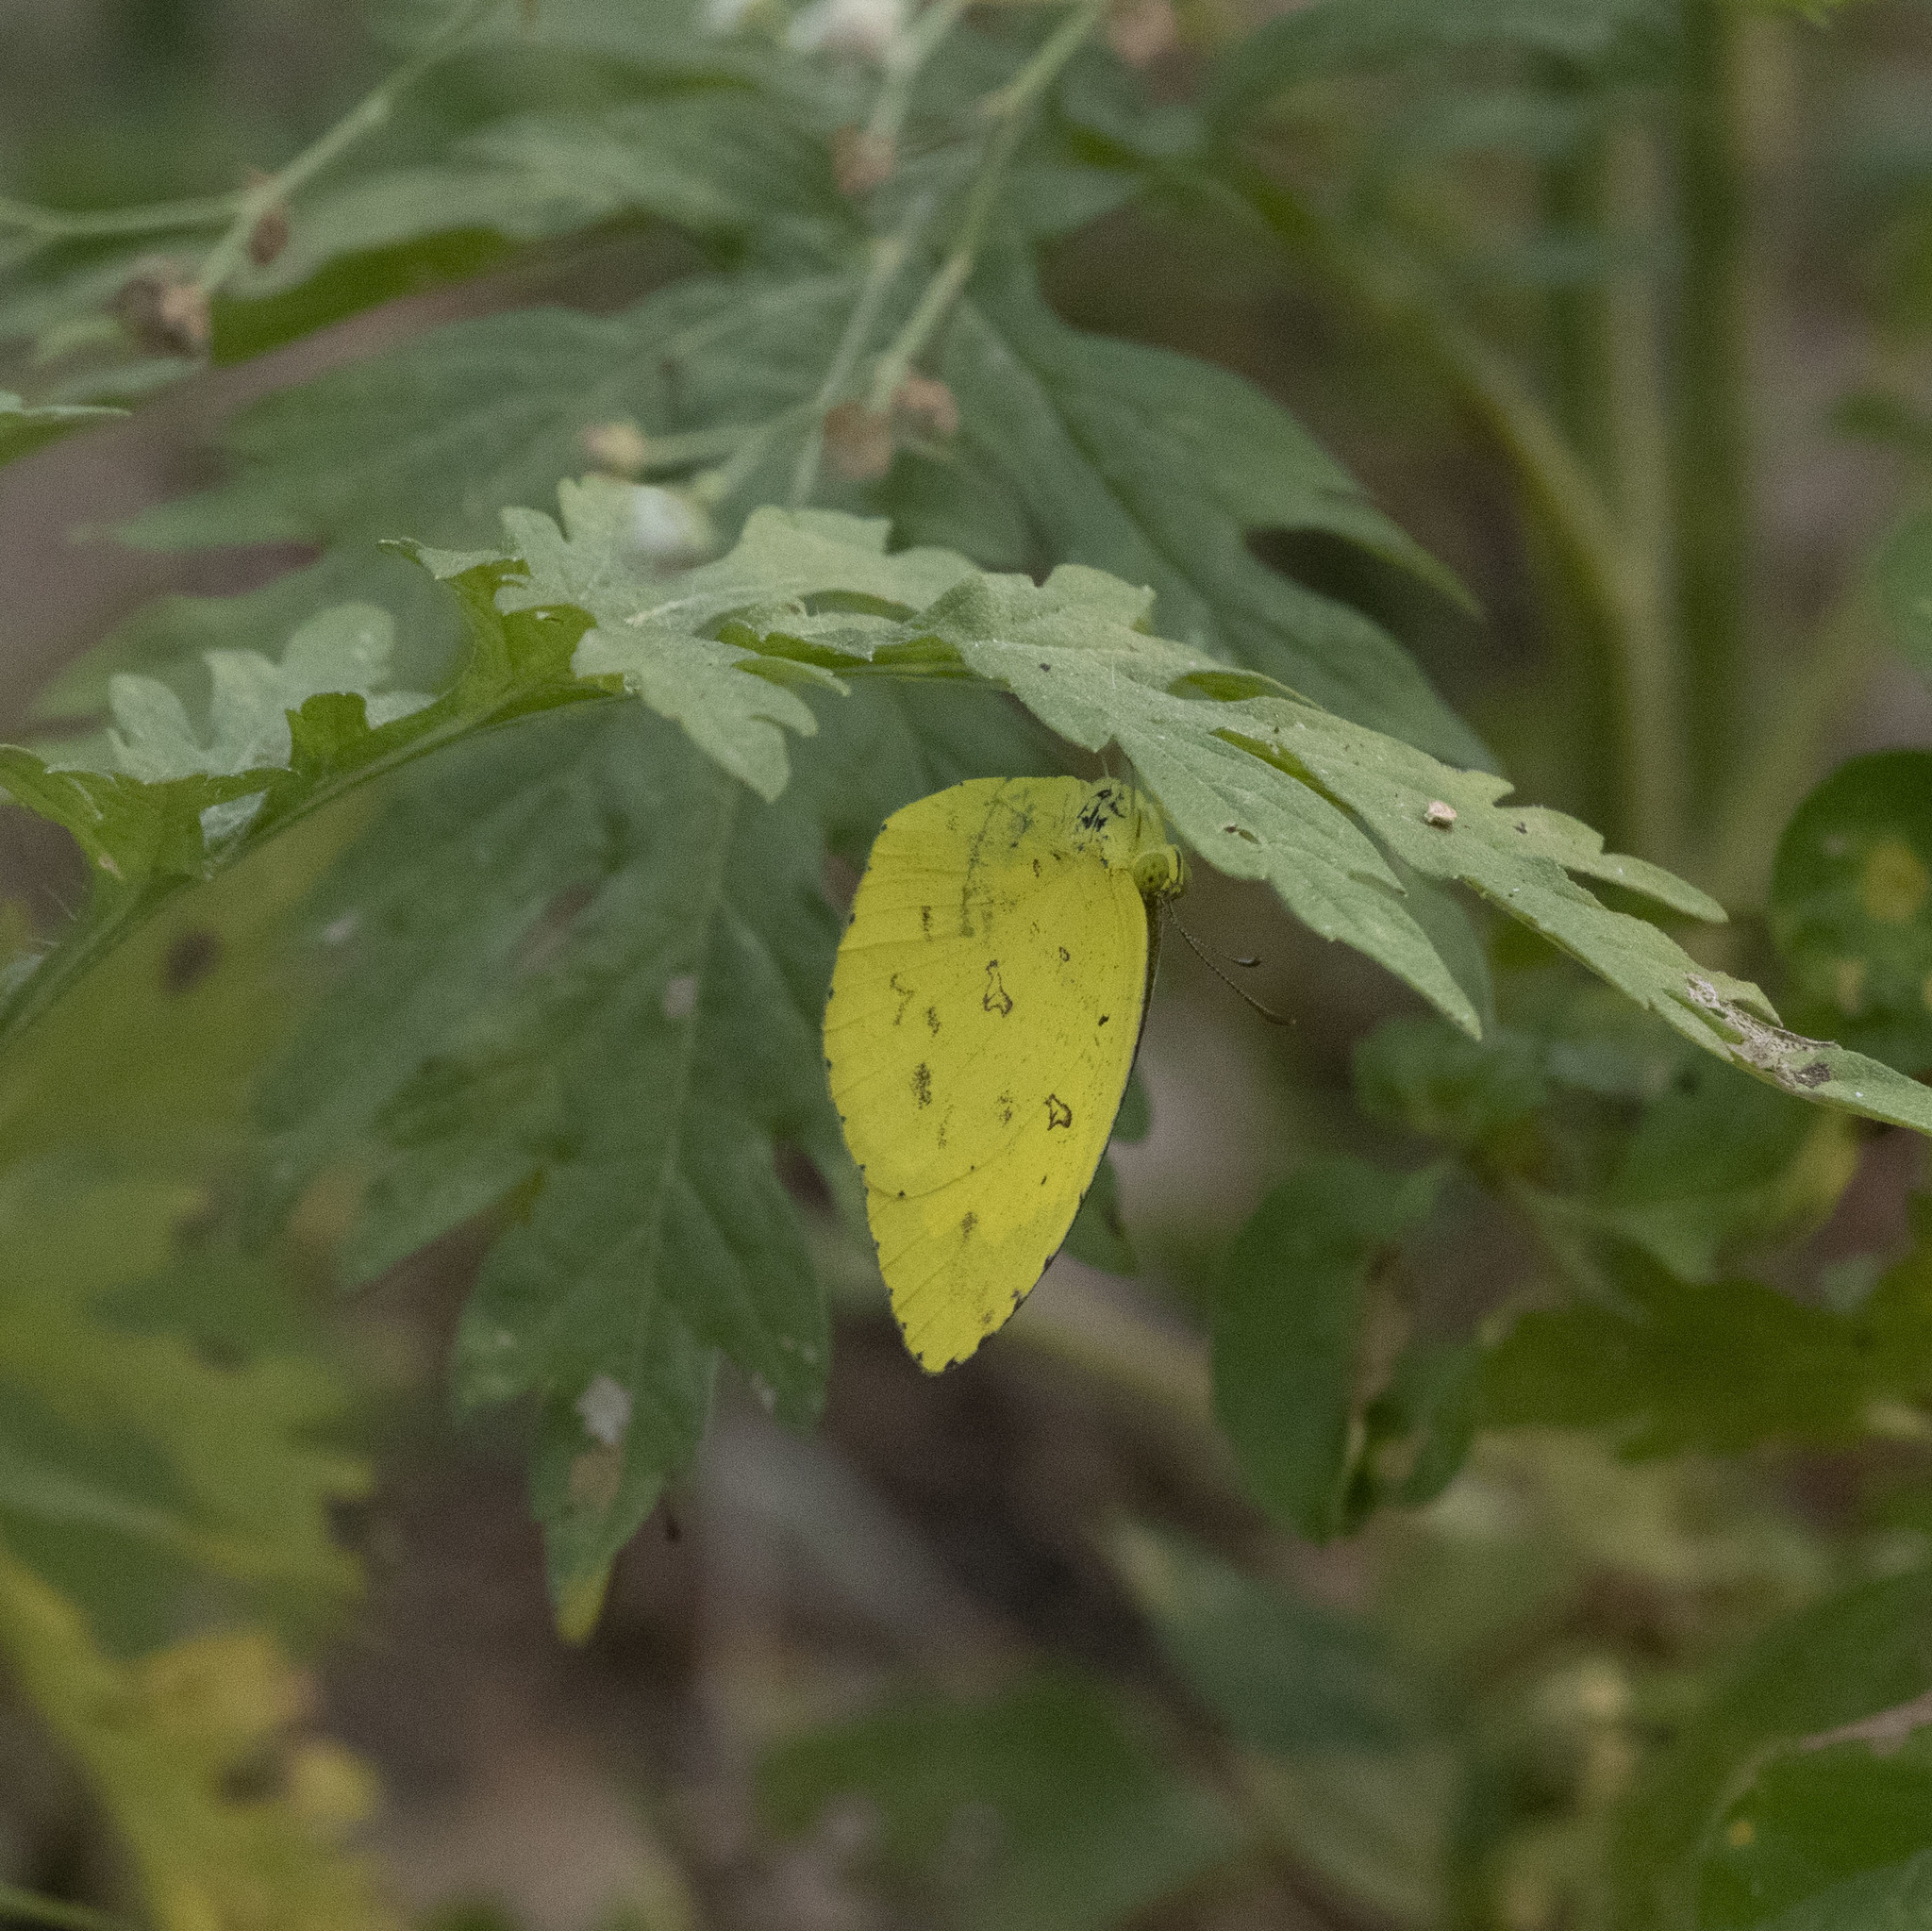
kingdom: Animalia
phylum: Arthropoda
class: Insecta
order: Lepidoptera
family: Pieridae
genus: Eurema
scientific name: Eurema blanda
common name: Three-spot grass yellow
